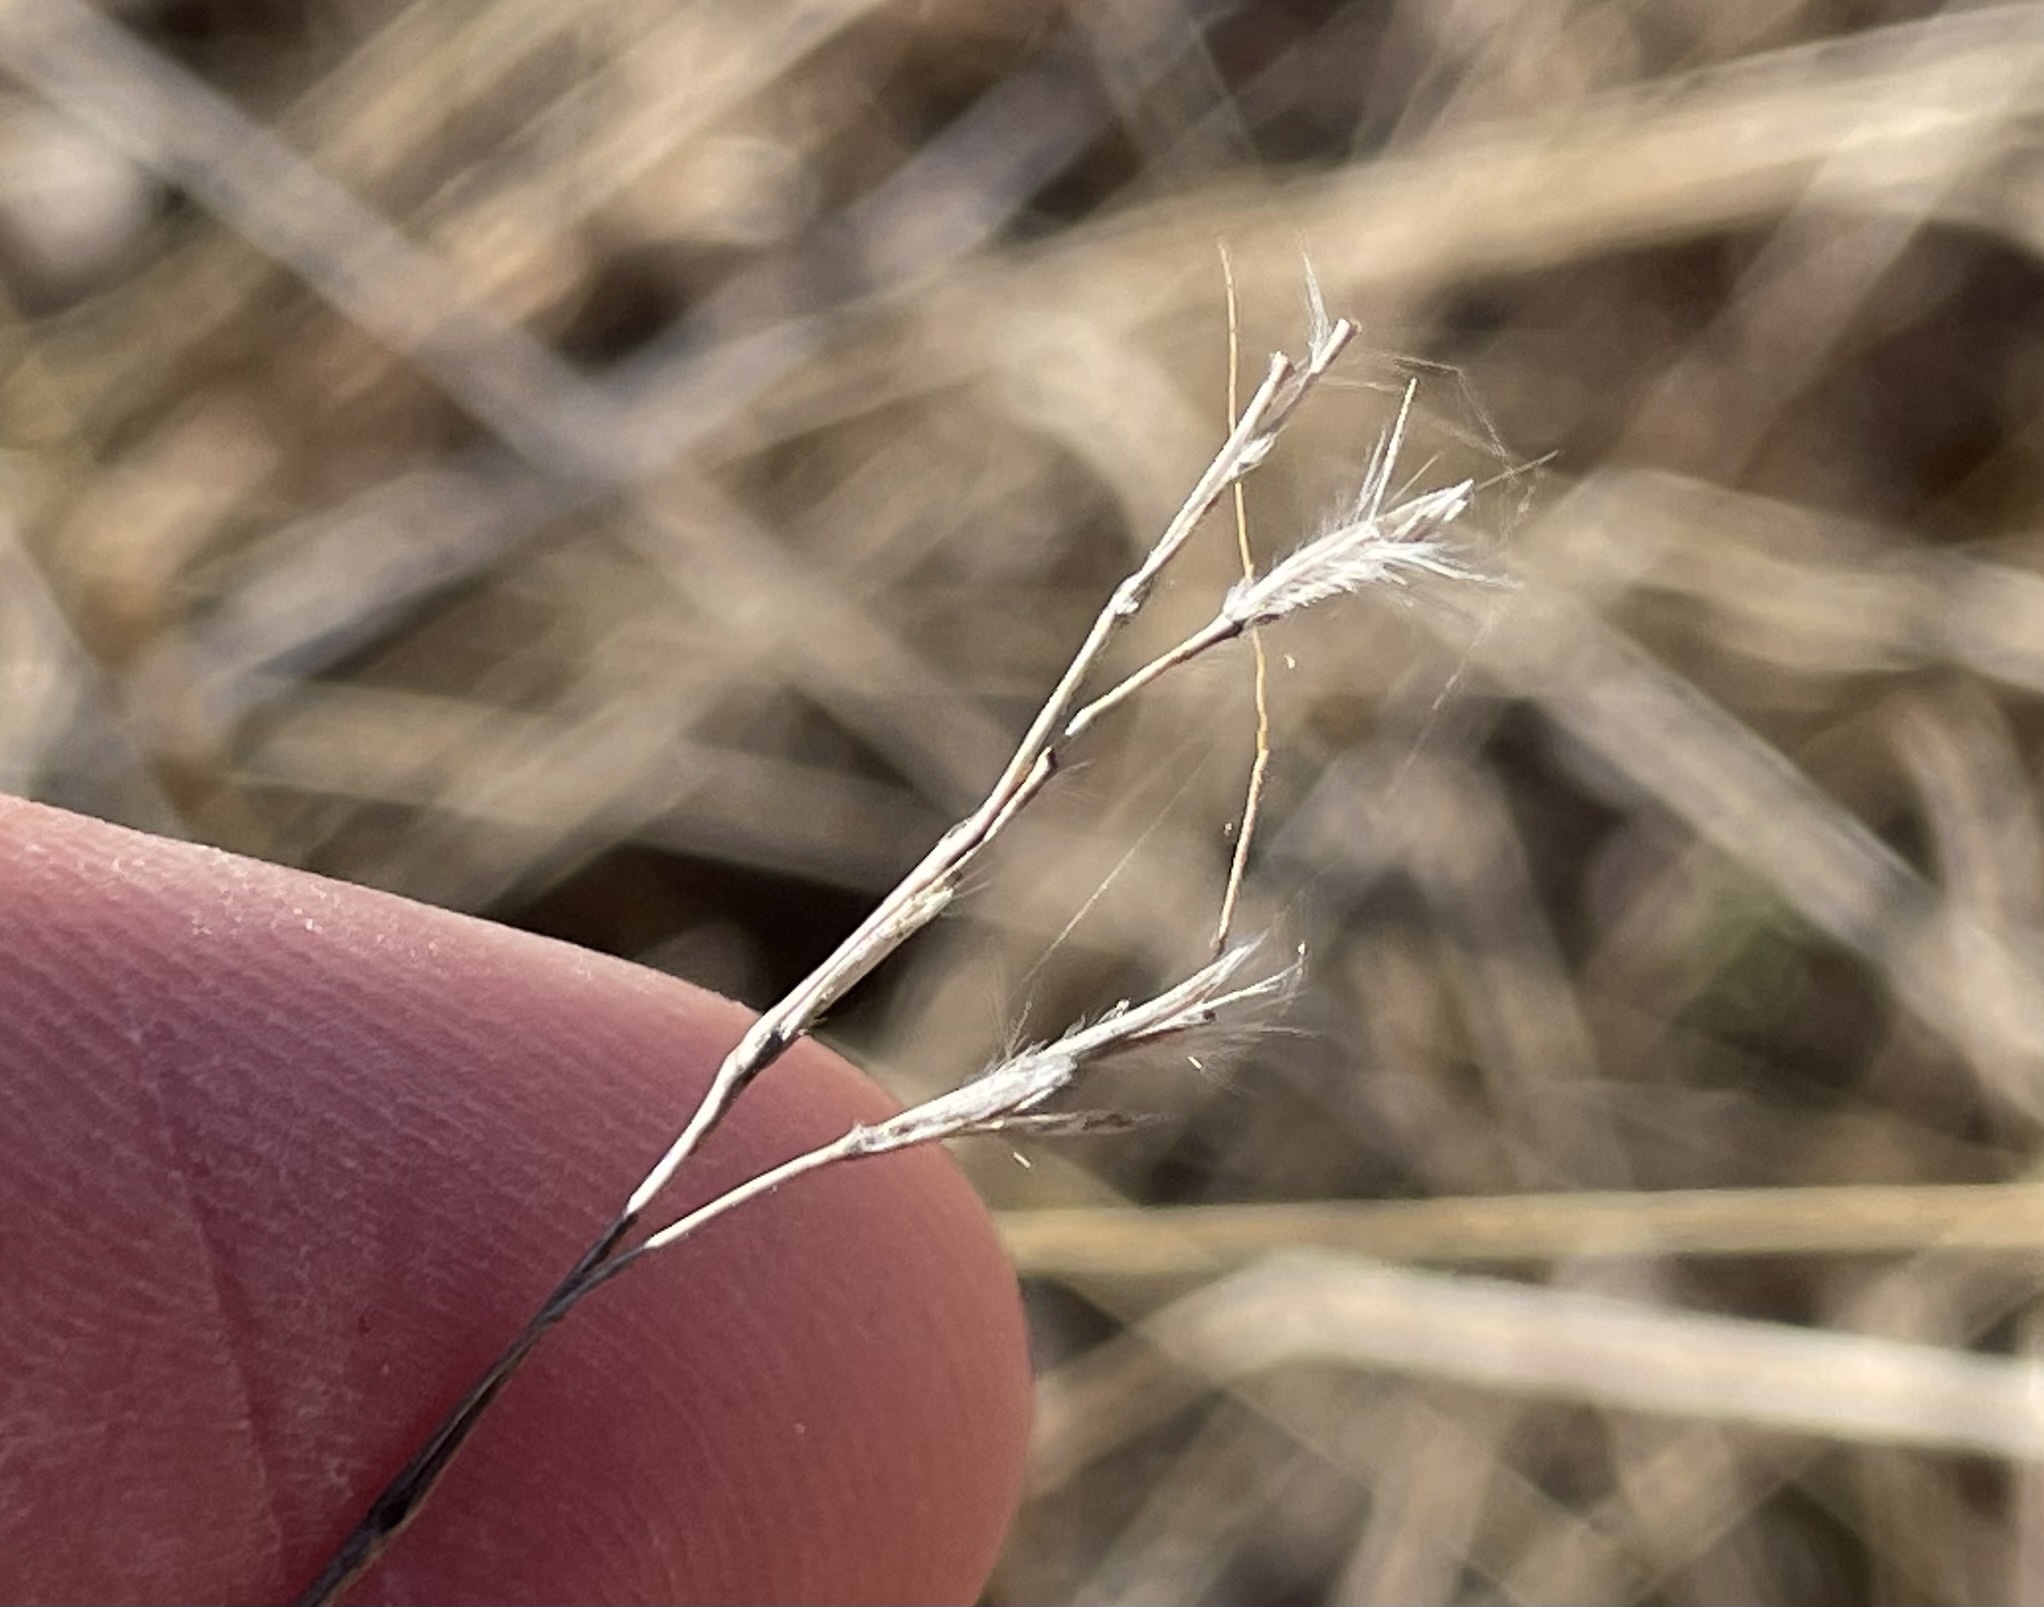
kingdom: Plantae
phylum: Tracheophyta
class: Liliopsida
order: Poales
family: Poaceae
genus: Bothriochloa
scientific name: Bothriochloa ischaemum
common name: Yellow bluestem
